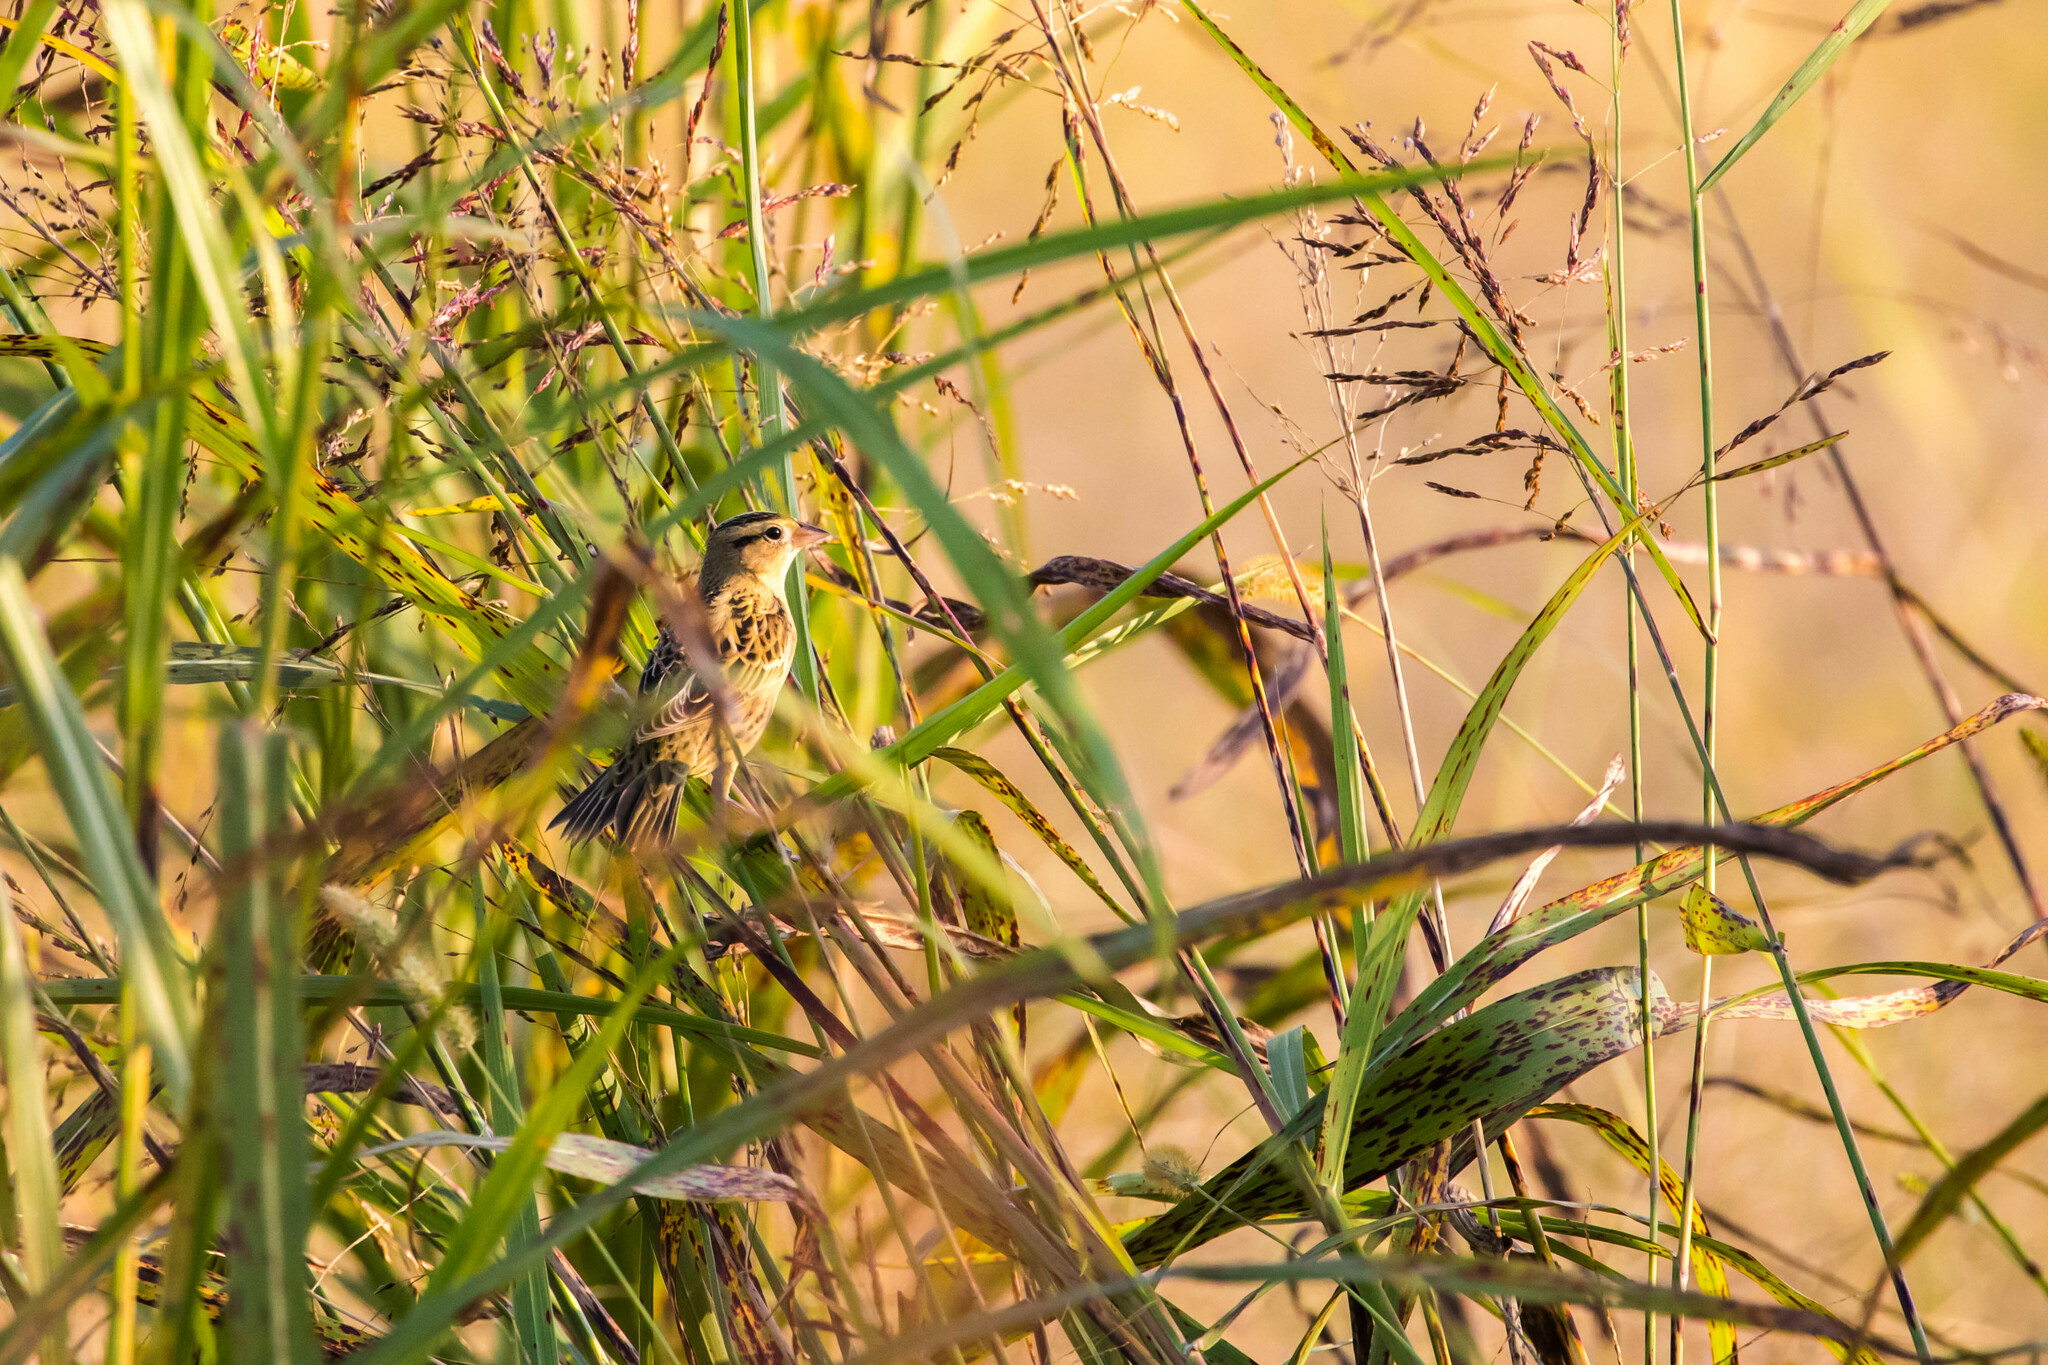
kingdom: Animalia
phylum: Chordata
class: Aves
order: Passeriformes
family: Icteridae
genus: Dolichonyx
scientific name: Dolichonyx oryzivorus
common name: Bobolink
